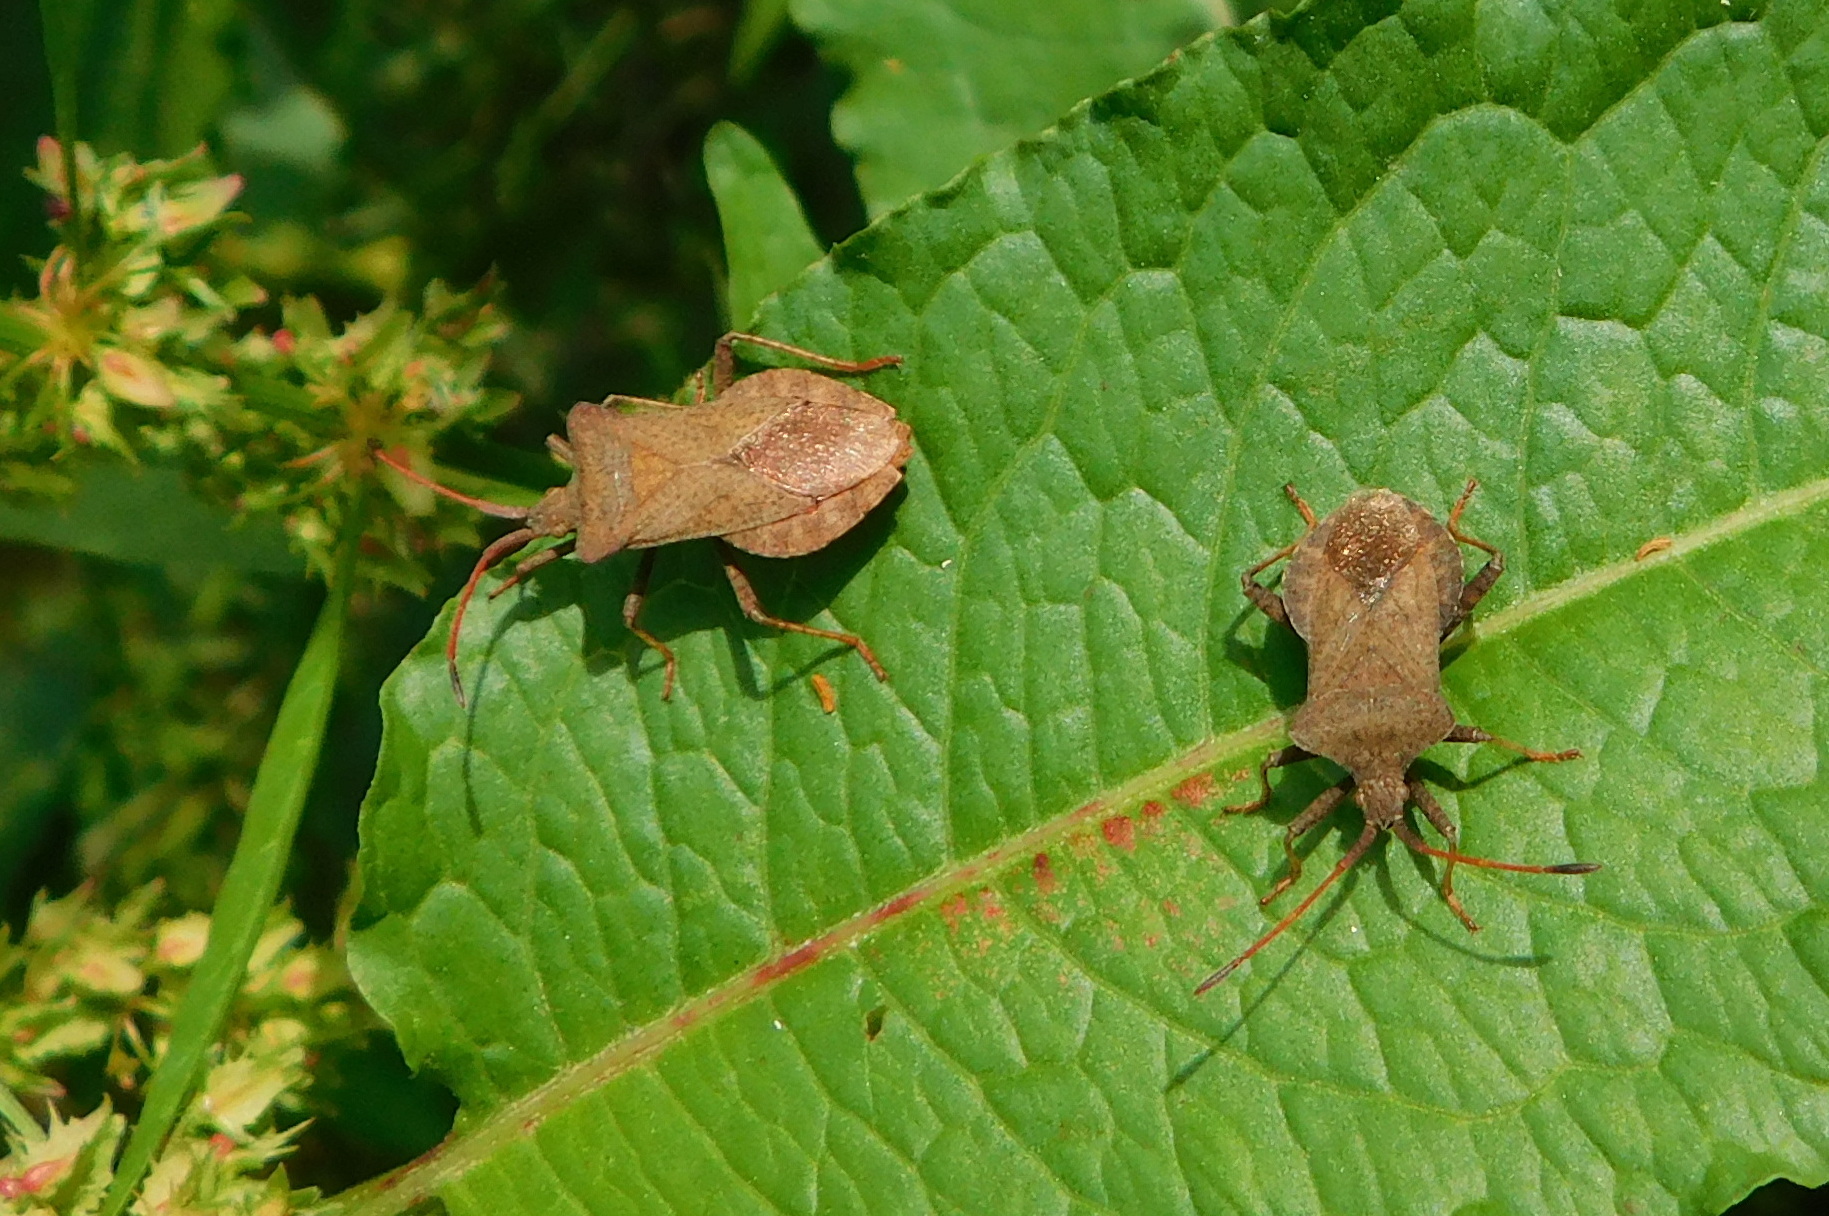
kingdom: Animalia
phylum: Arthropoda
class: Insecta
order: Hemiptera
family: Coreidae
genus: Coreus
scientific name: Coreus marginatus
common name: Dock bug
